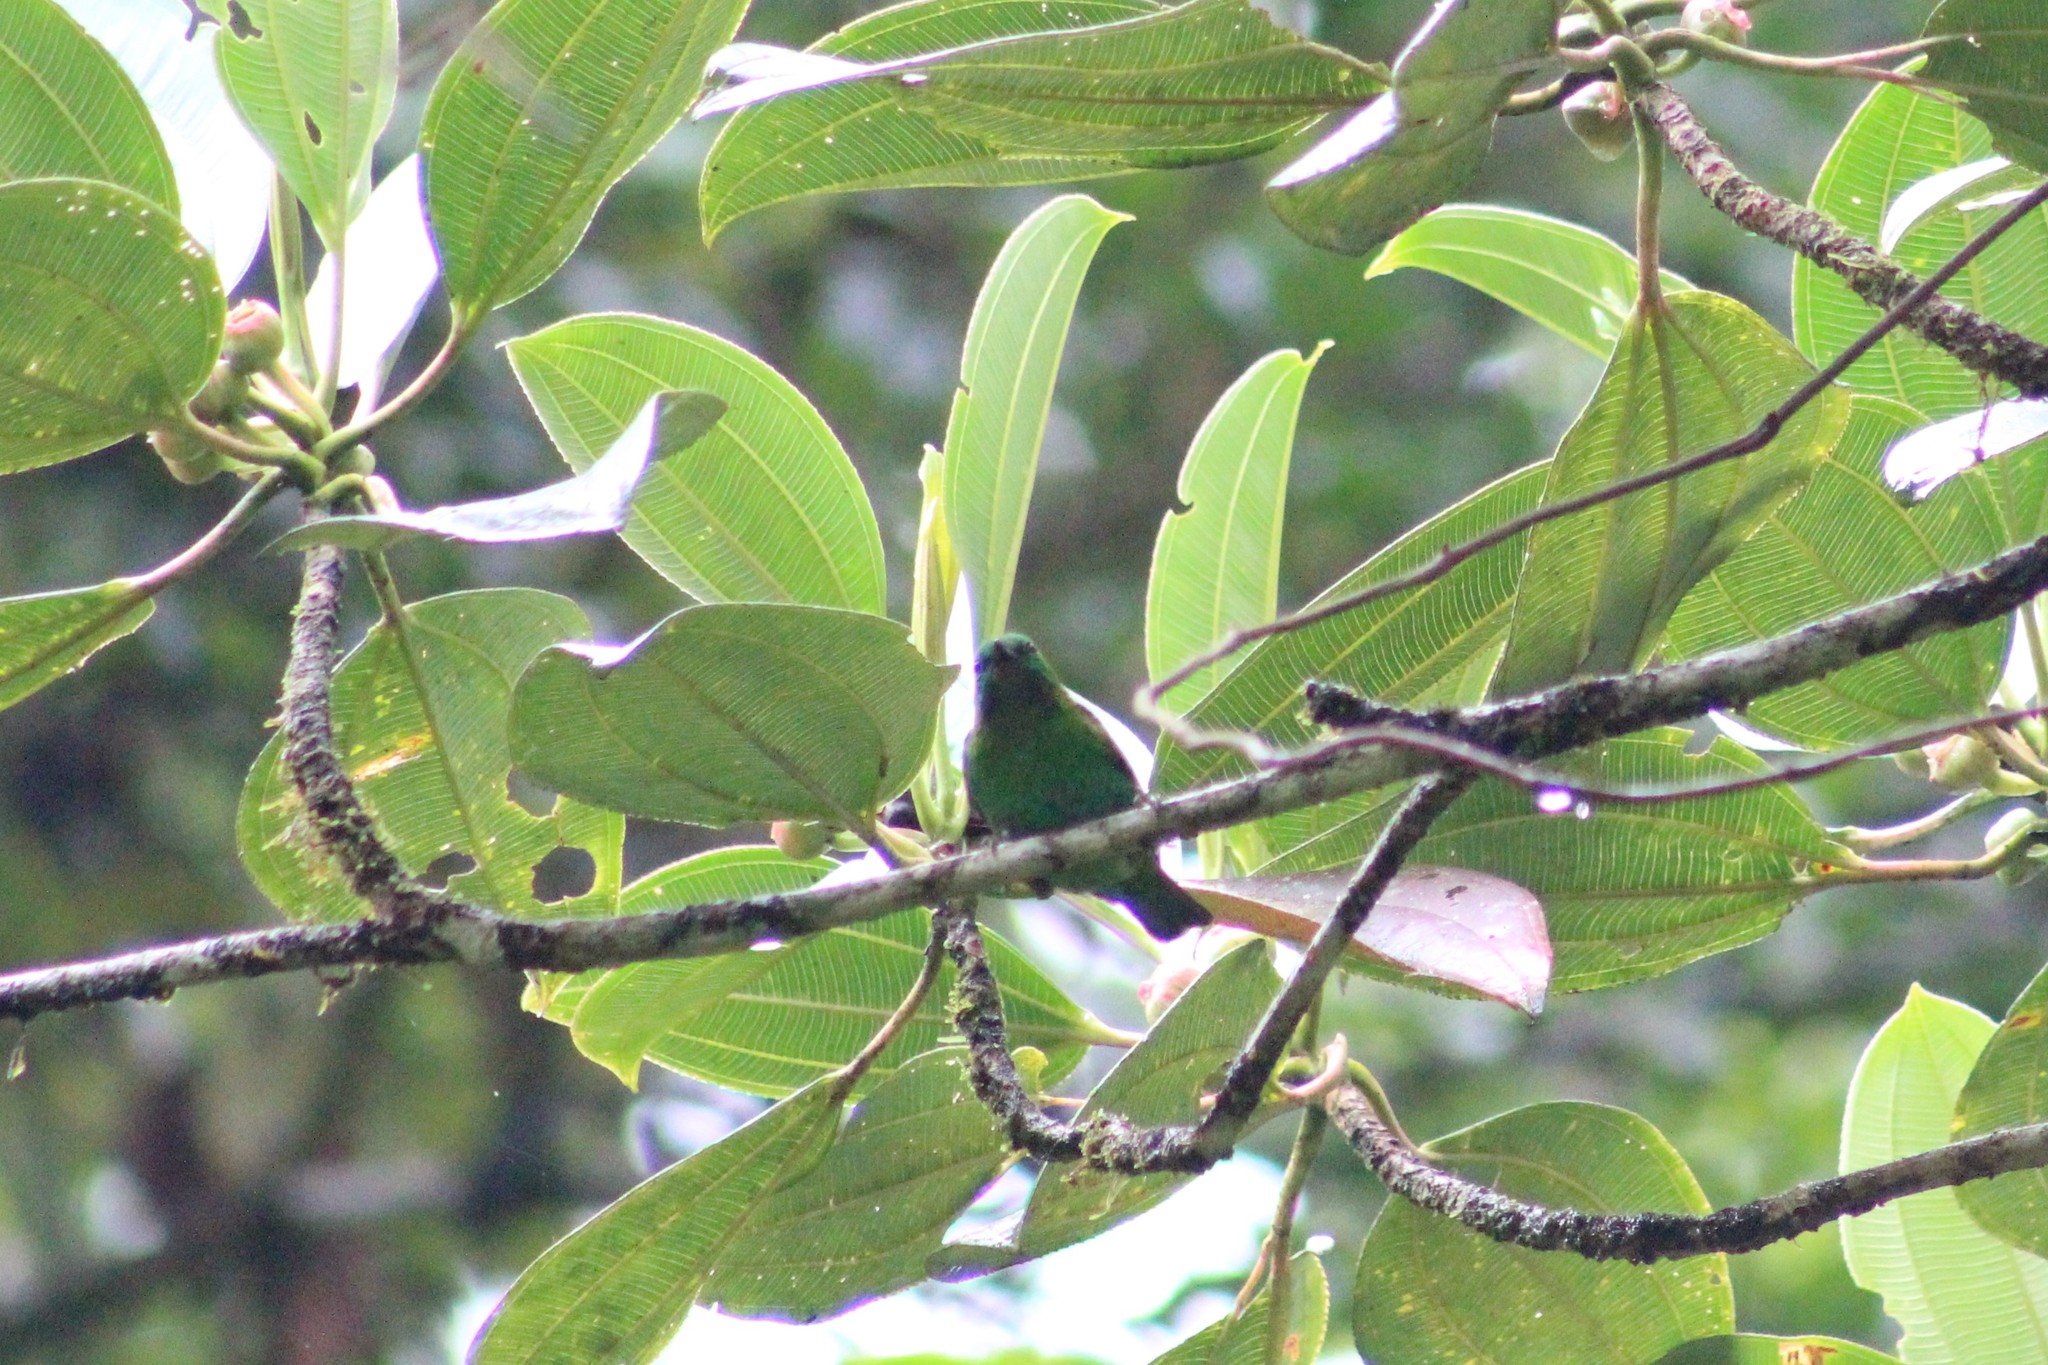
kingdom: Animalia
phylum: Chordata
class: Aves
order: Passeriformes
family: Thraupidae
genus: Chlorochrysa
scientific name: Chlorochrysa calliparaea
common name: Orange-eared tanager
